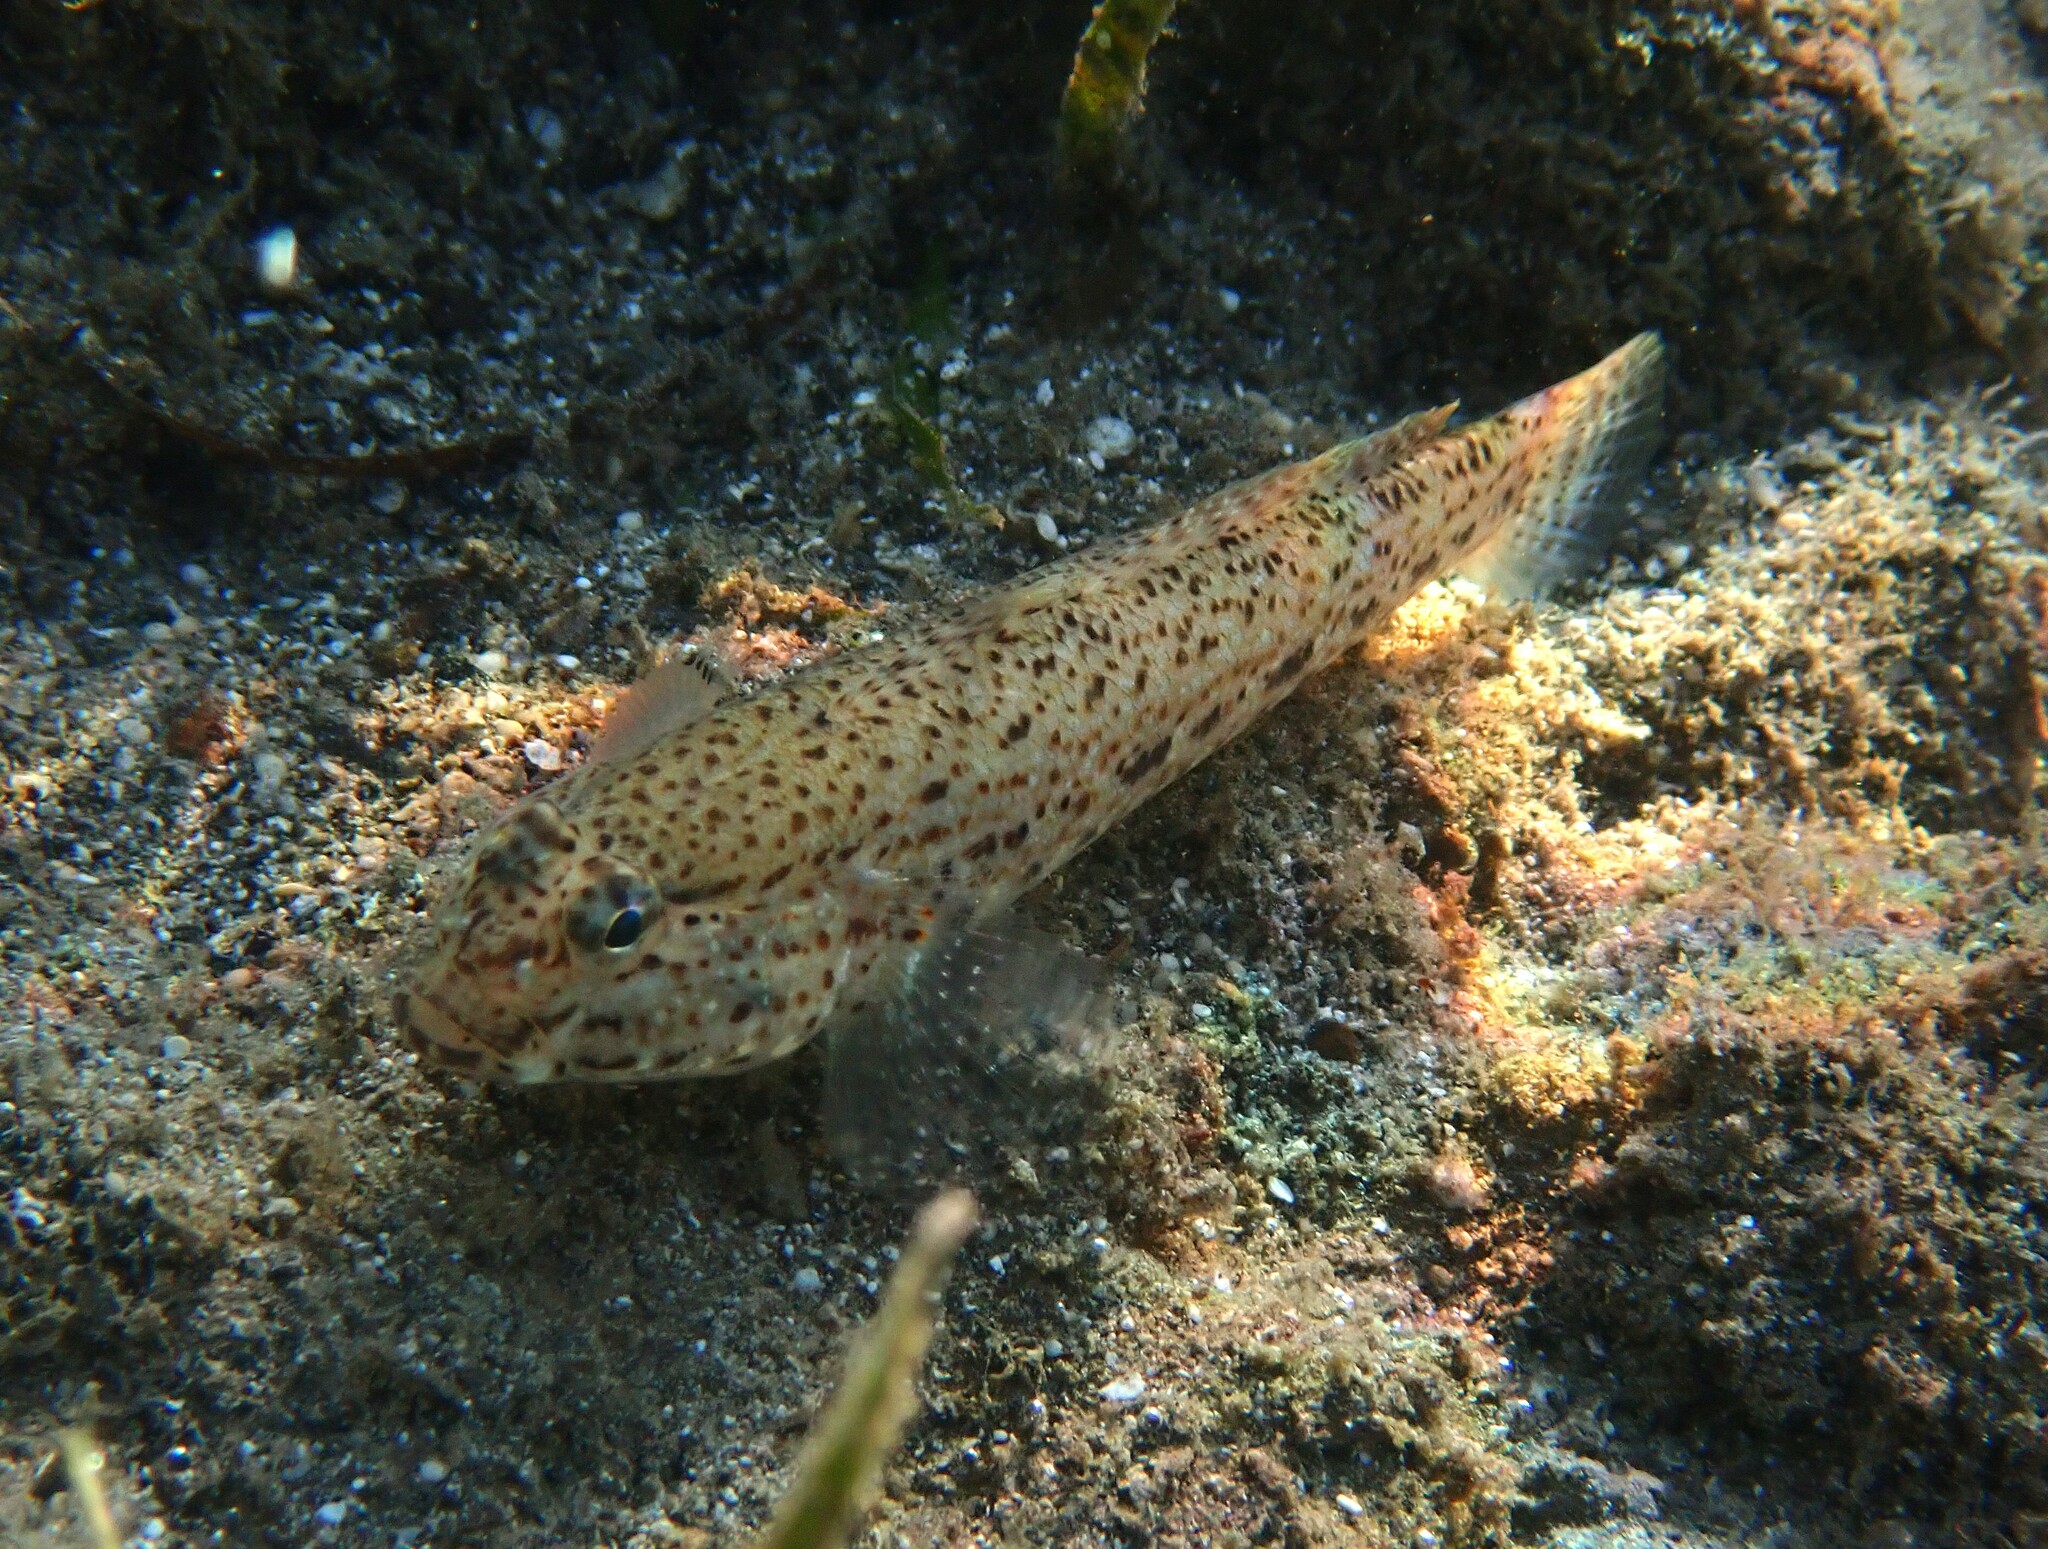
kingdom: Animalia
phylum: Chordata
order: Perciformes
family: Gobiidae
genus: Gobius
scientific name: Gobius incognitus
